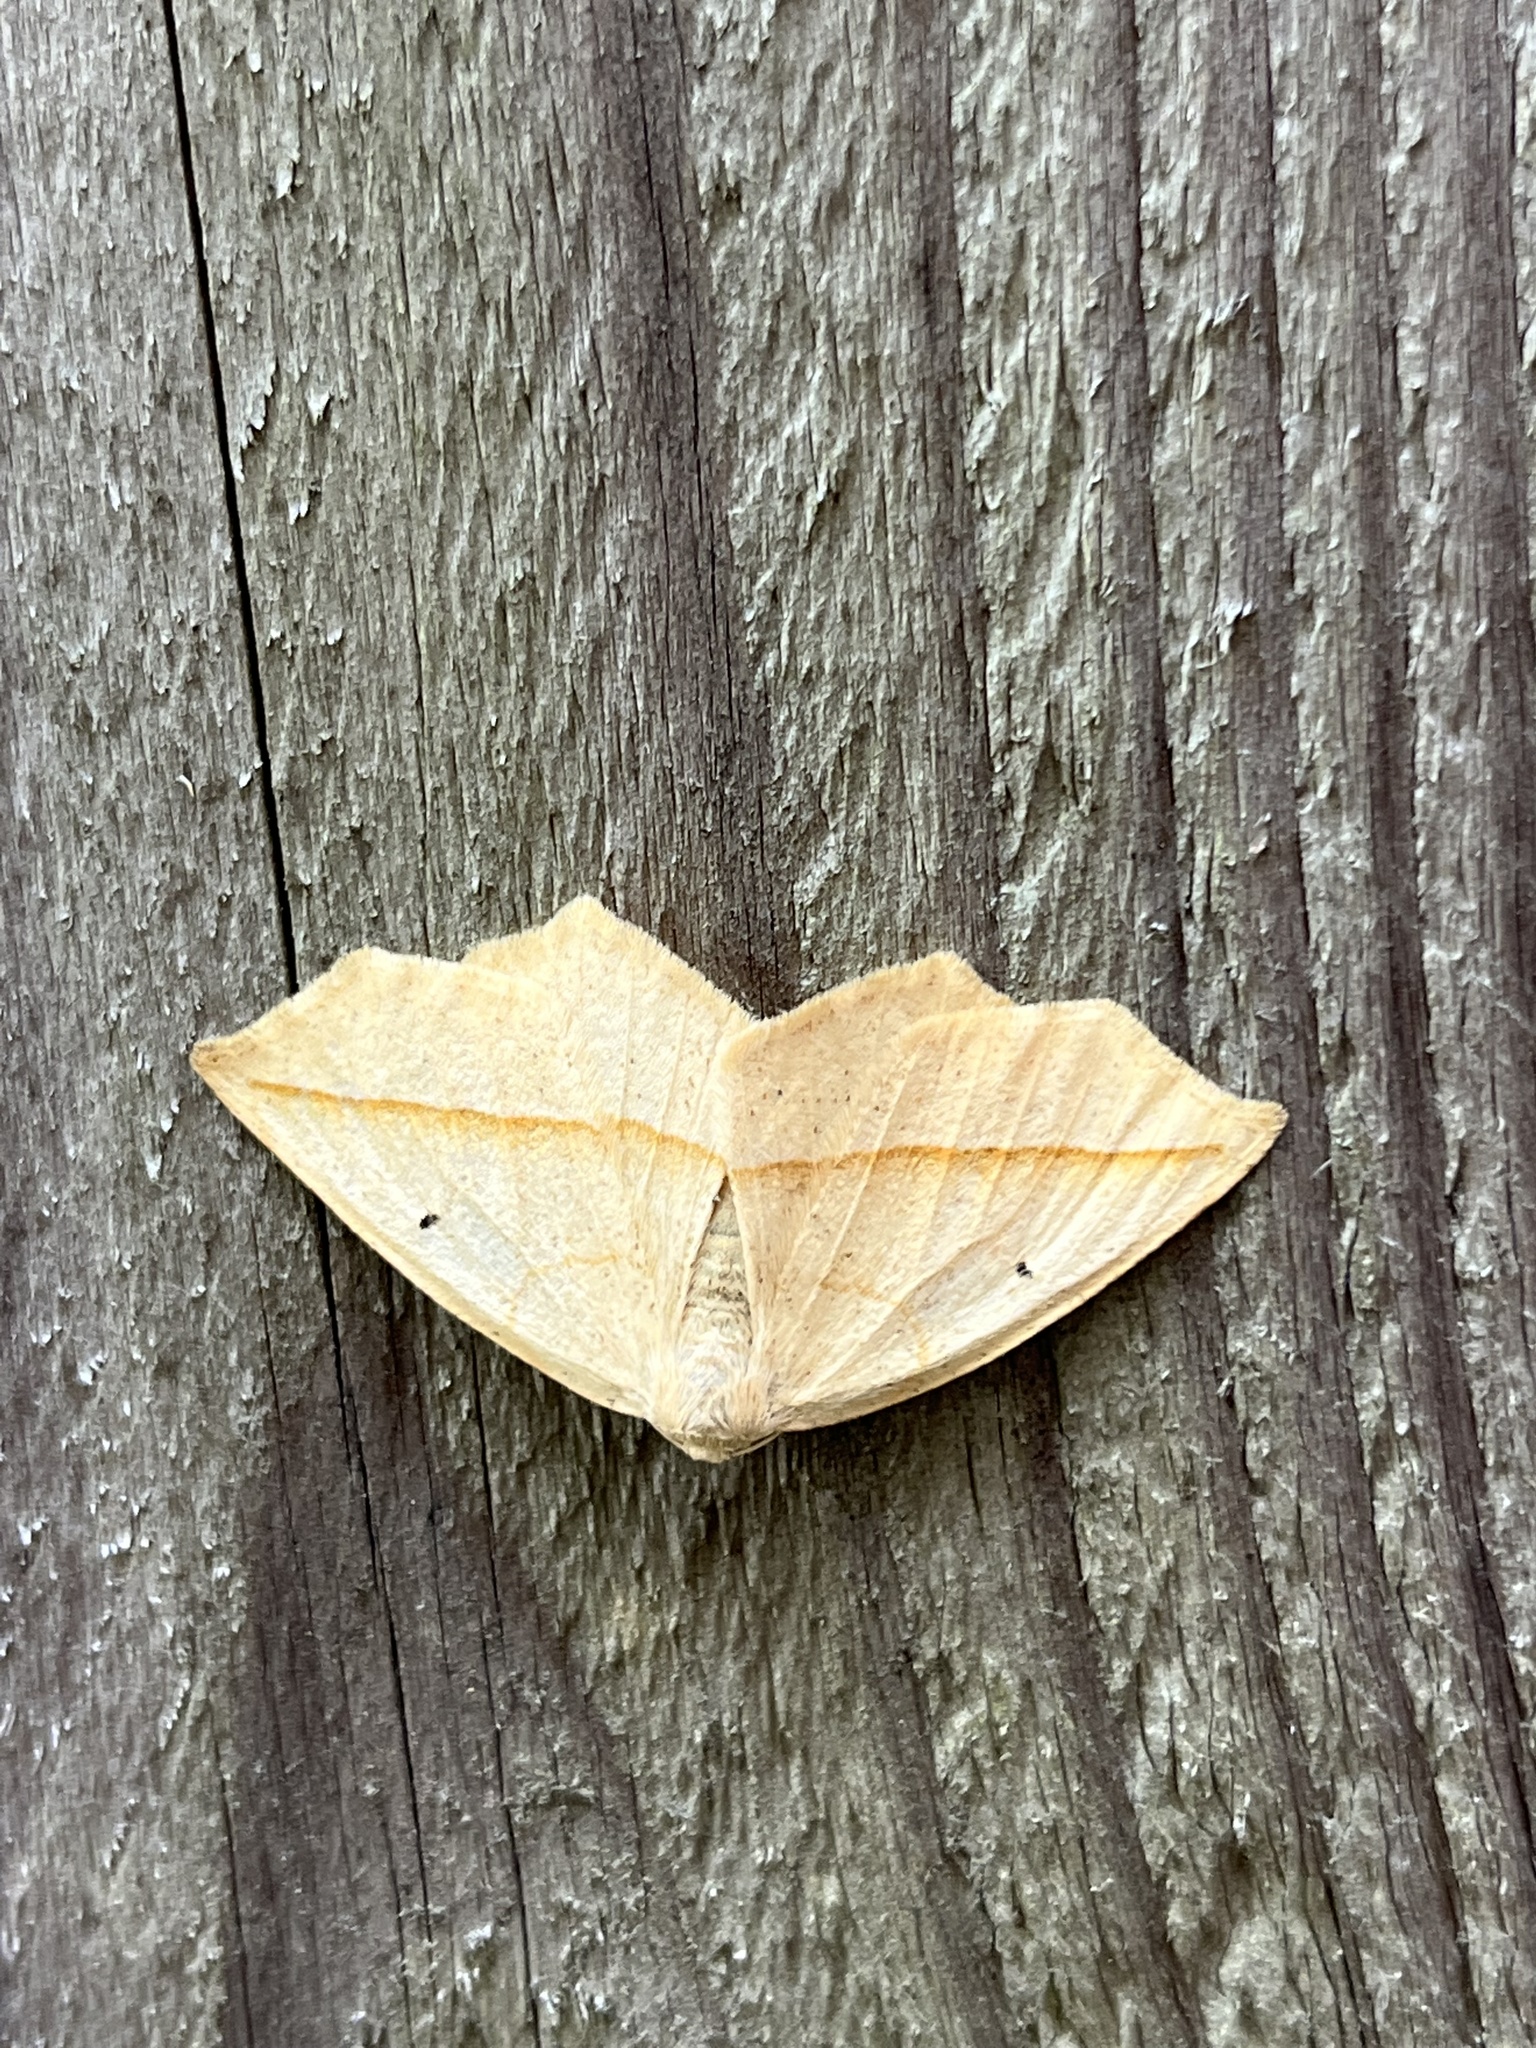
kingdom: Animalia
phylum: Arthropoda
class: Insecta
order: Lepidoptera
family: Geometridae
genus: Eusarca
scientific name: Eusarca confusaria
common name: Confused eusarca
